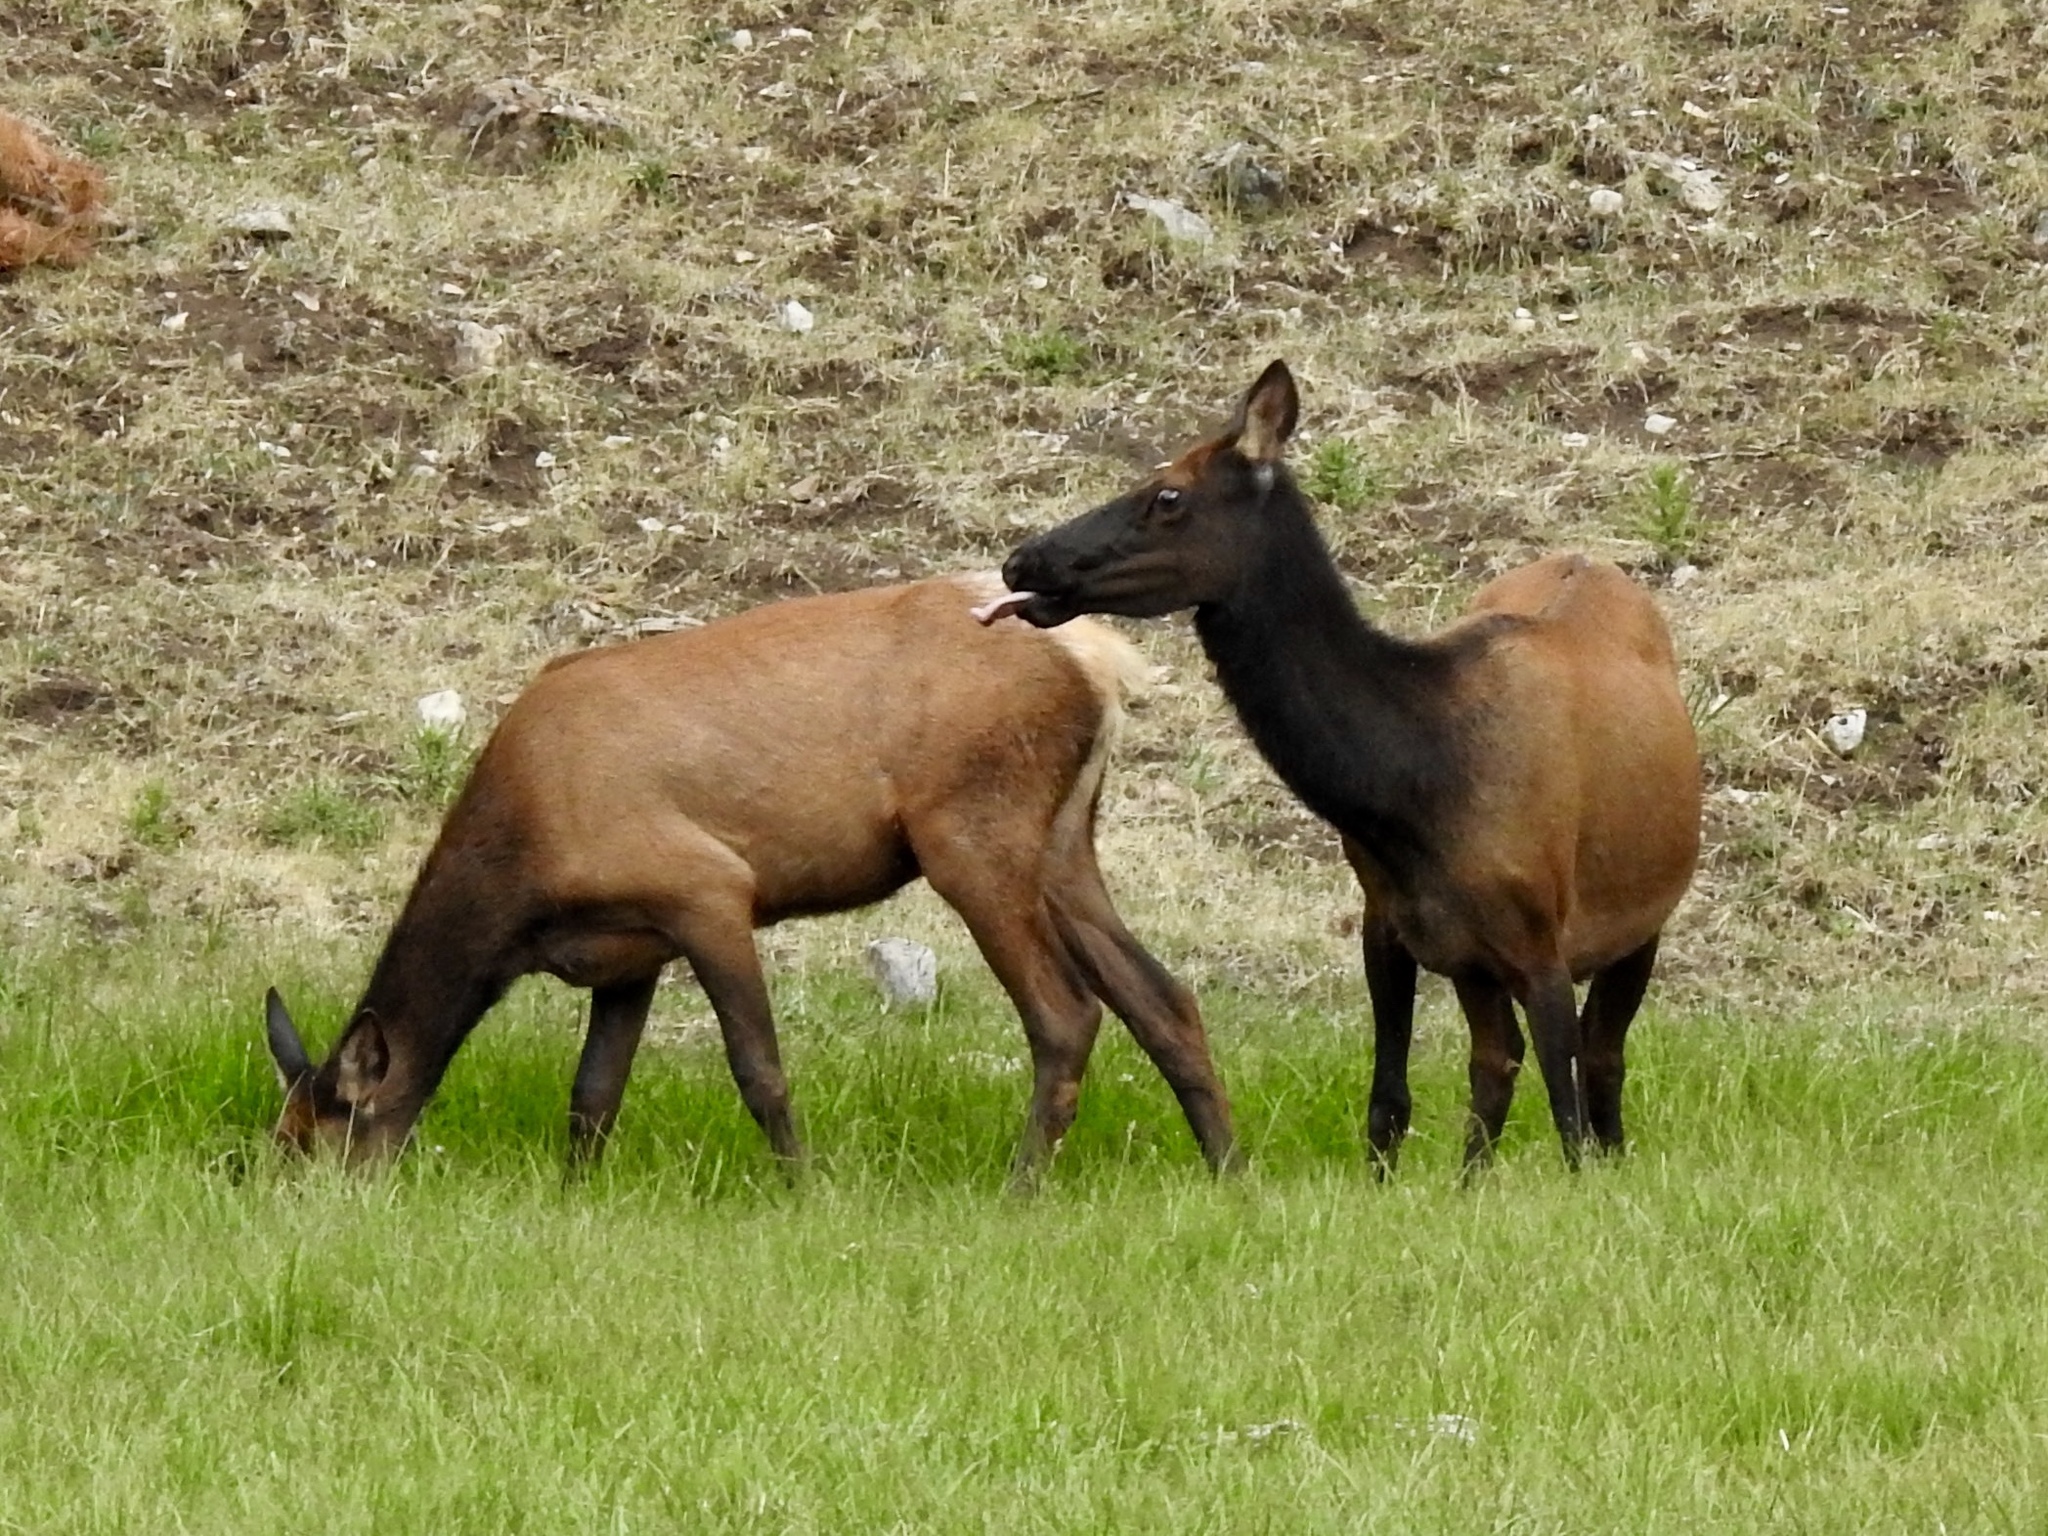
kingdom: Animalia
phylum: Chordata
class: Mammalia
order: Artiodactyla
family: Cervidae
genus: Cervus
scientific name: Cervus elaphus
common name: Red deer
